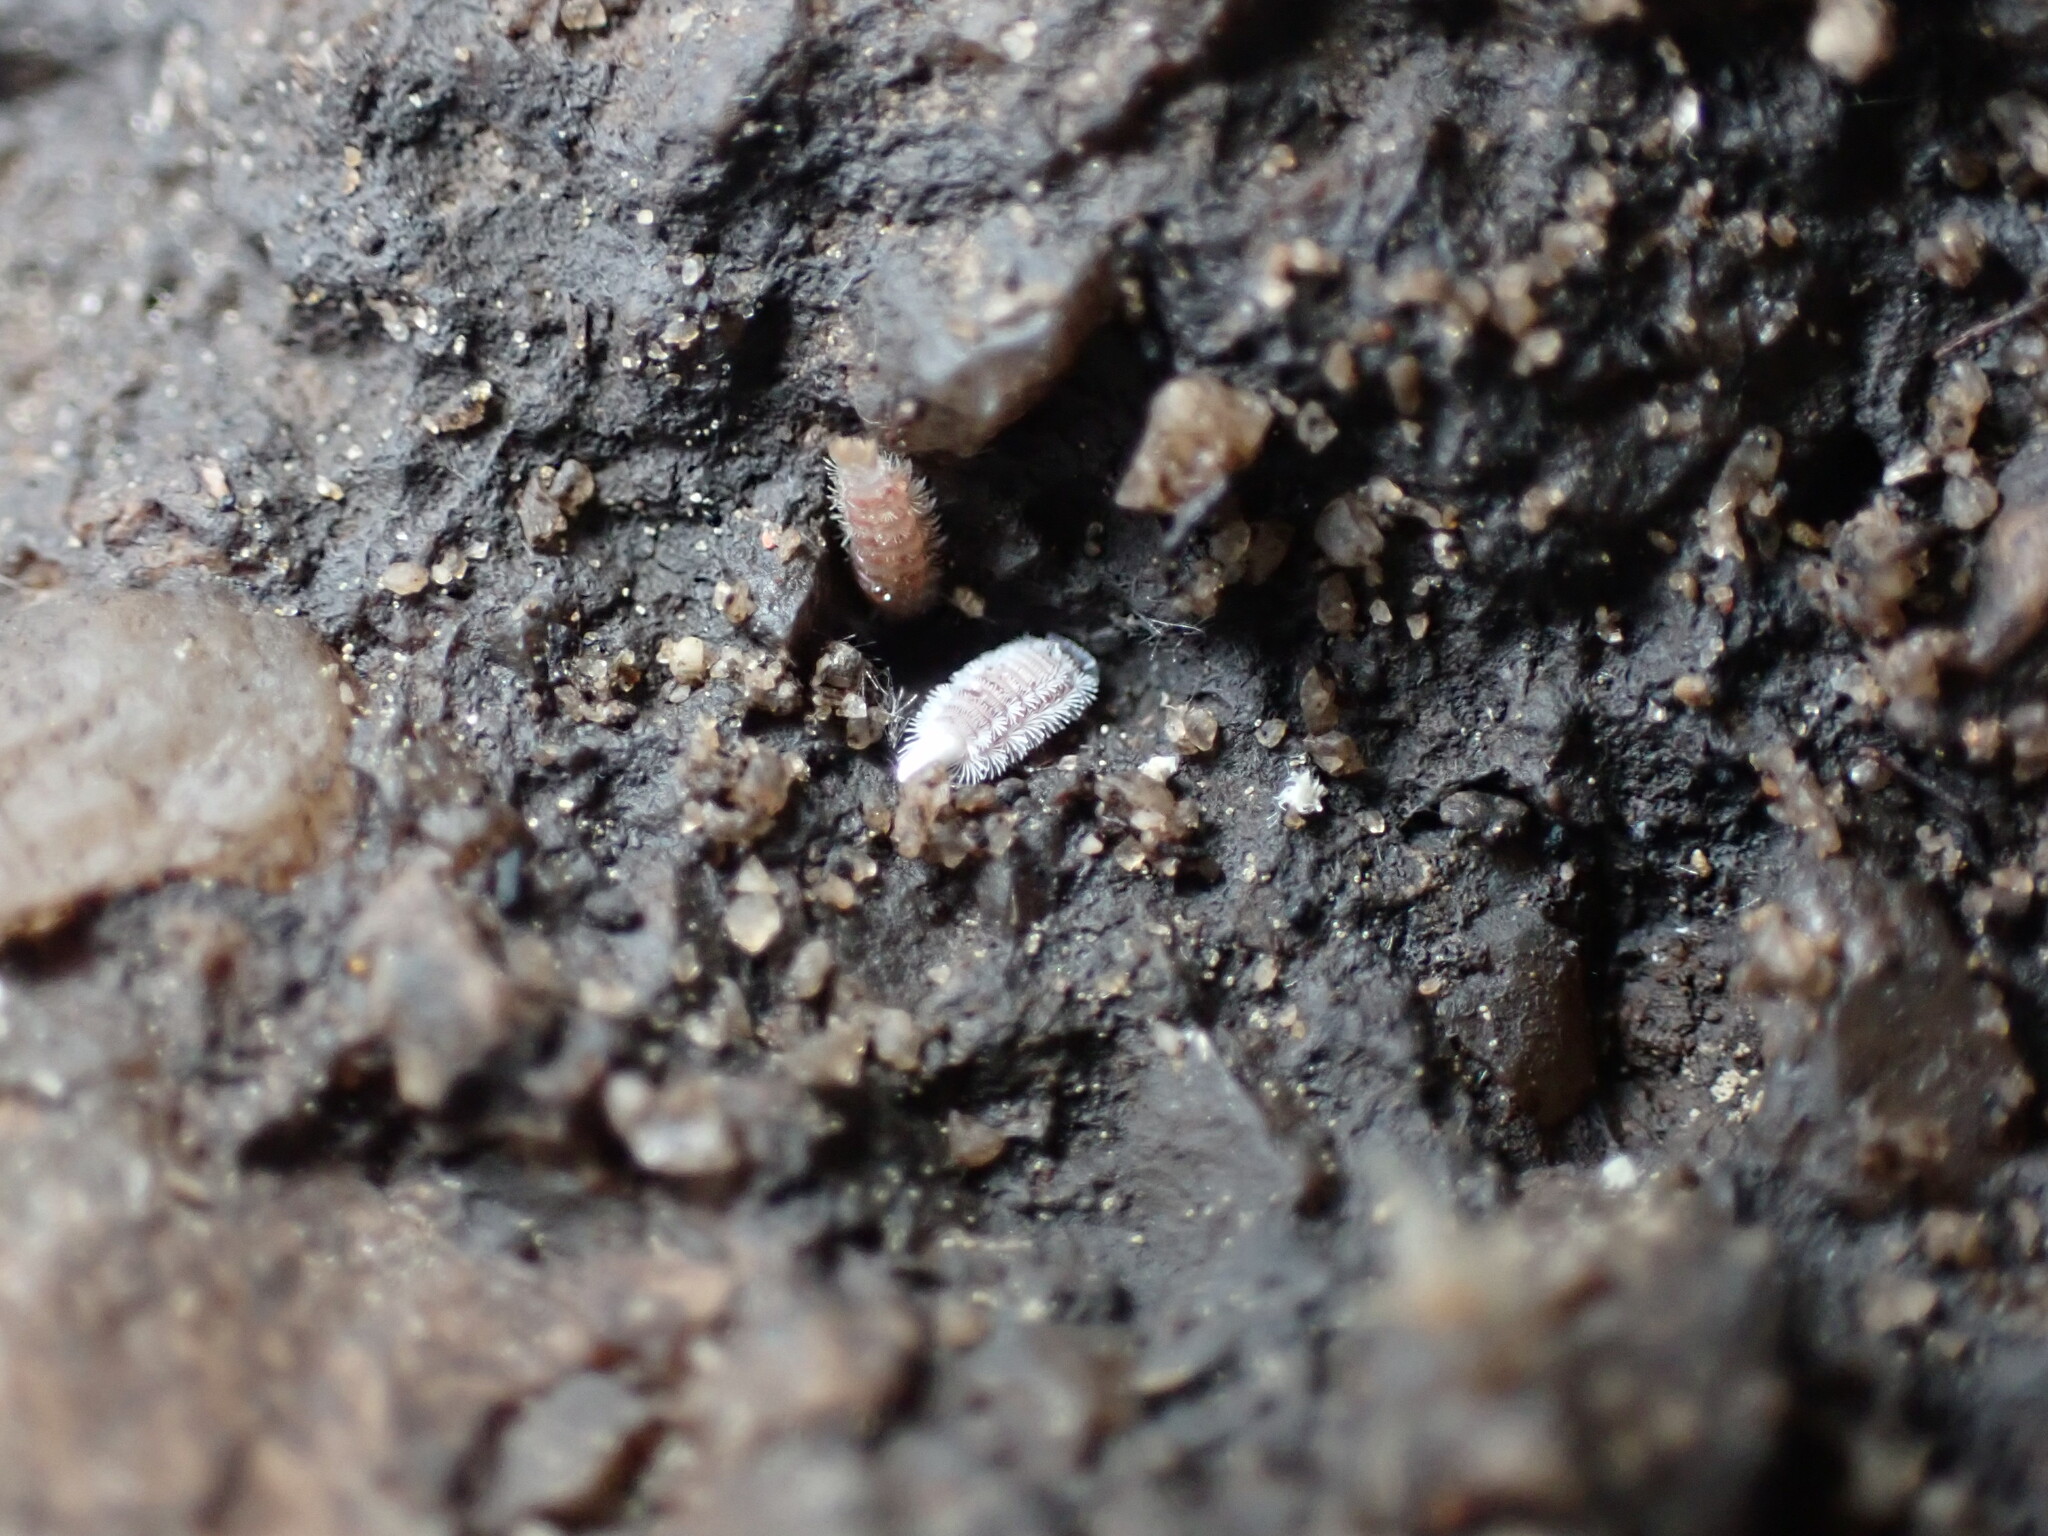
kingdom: Animalia
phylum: Arthropoda
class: Diplopoda
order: Polyxenida
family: Polyxenidae
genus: Polyxenus
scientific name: Polyxenus lagurus
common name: Bristly millipede
